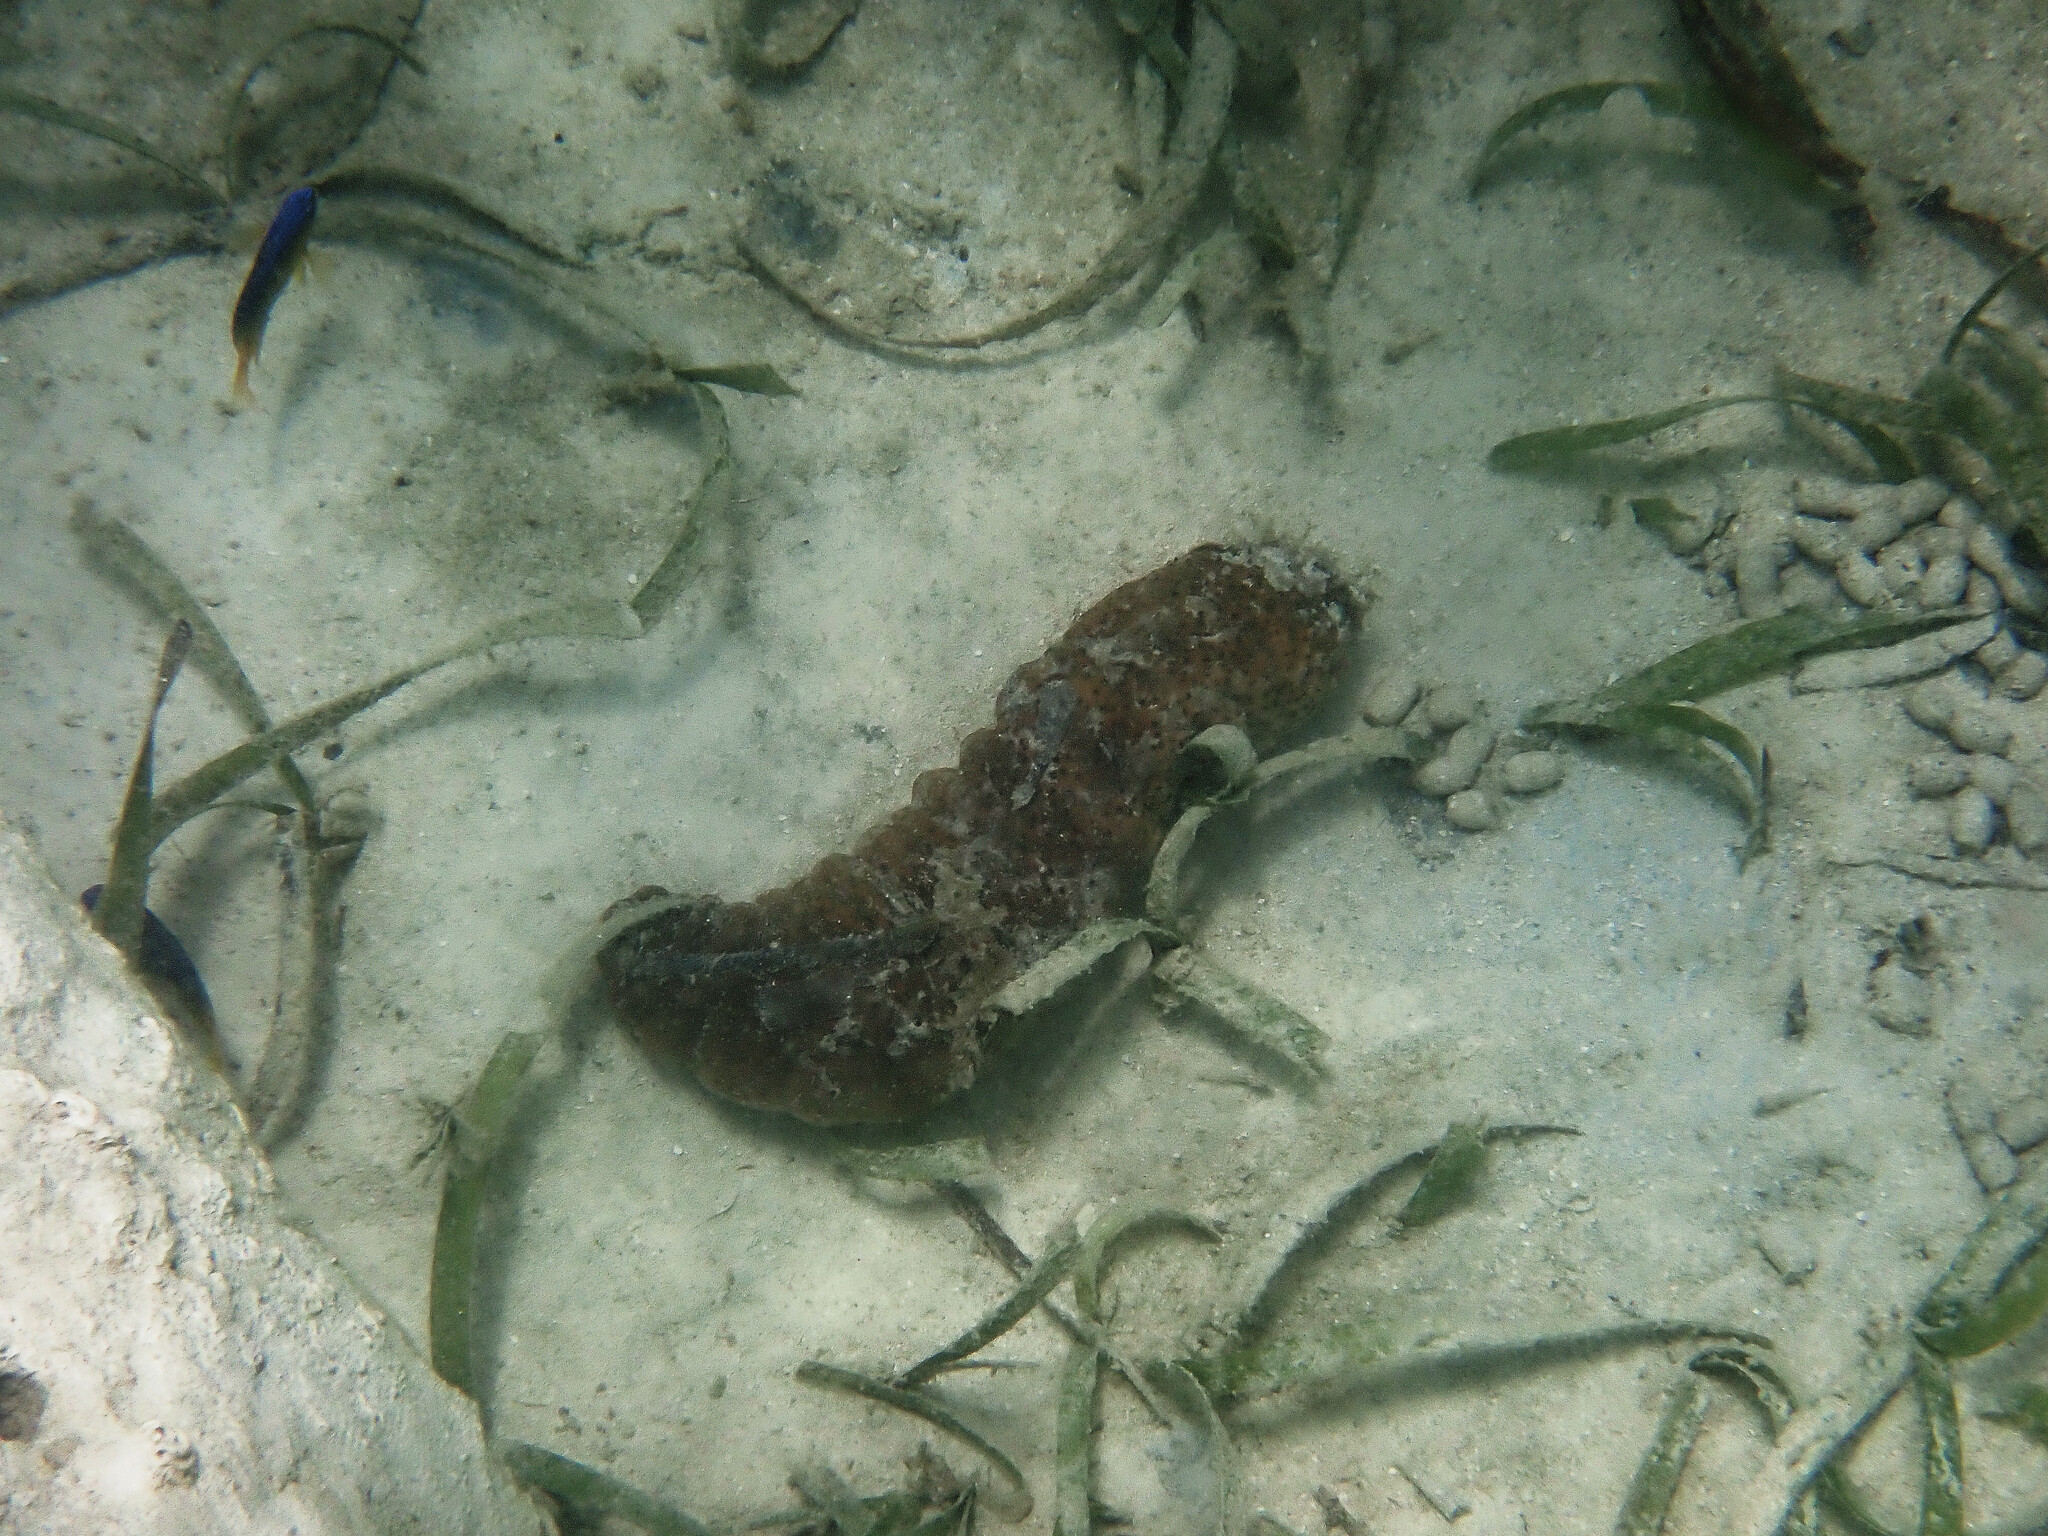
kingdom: Animalia
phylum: Echinodermata
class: Holothuroidea
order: Holothuriida
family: Holothuriidae
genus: Holothuria
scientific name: Holothuria mexicana
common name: Donkey dung sea cucumber
